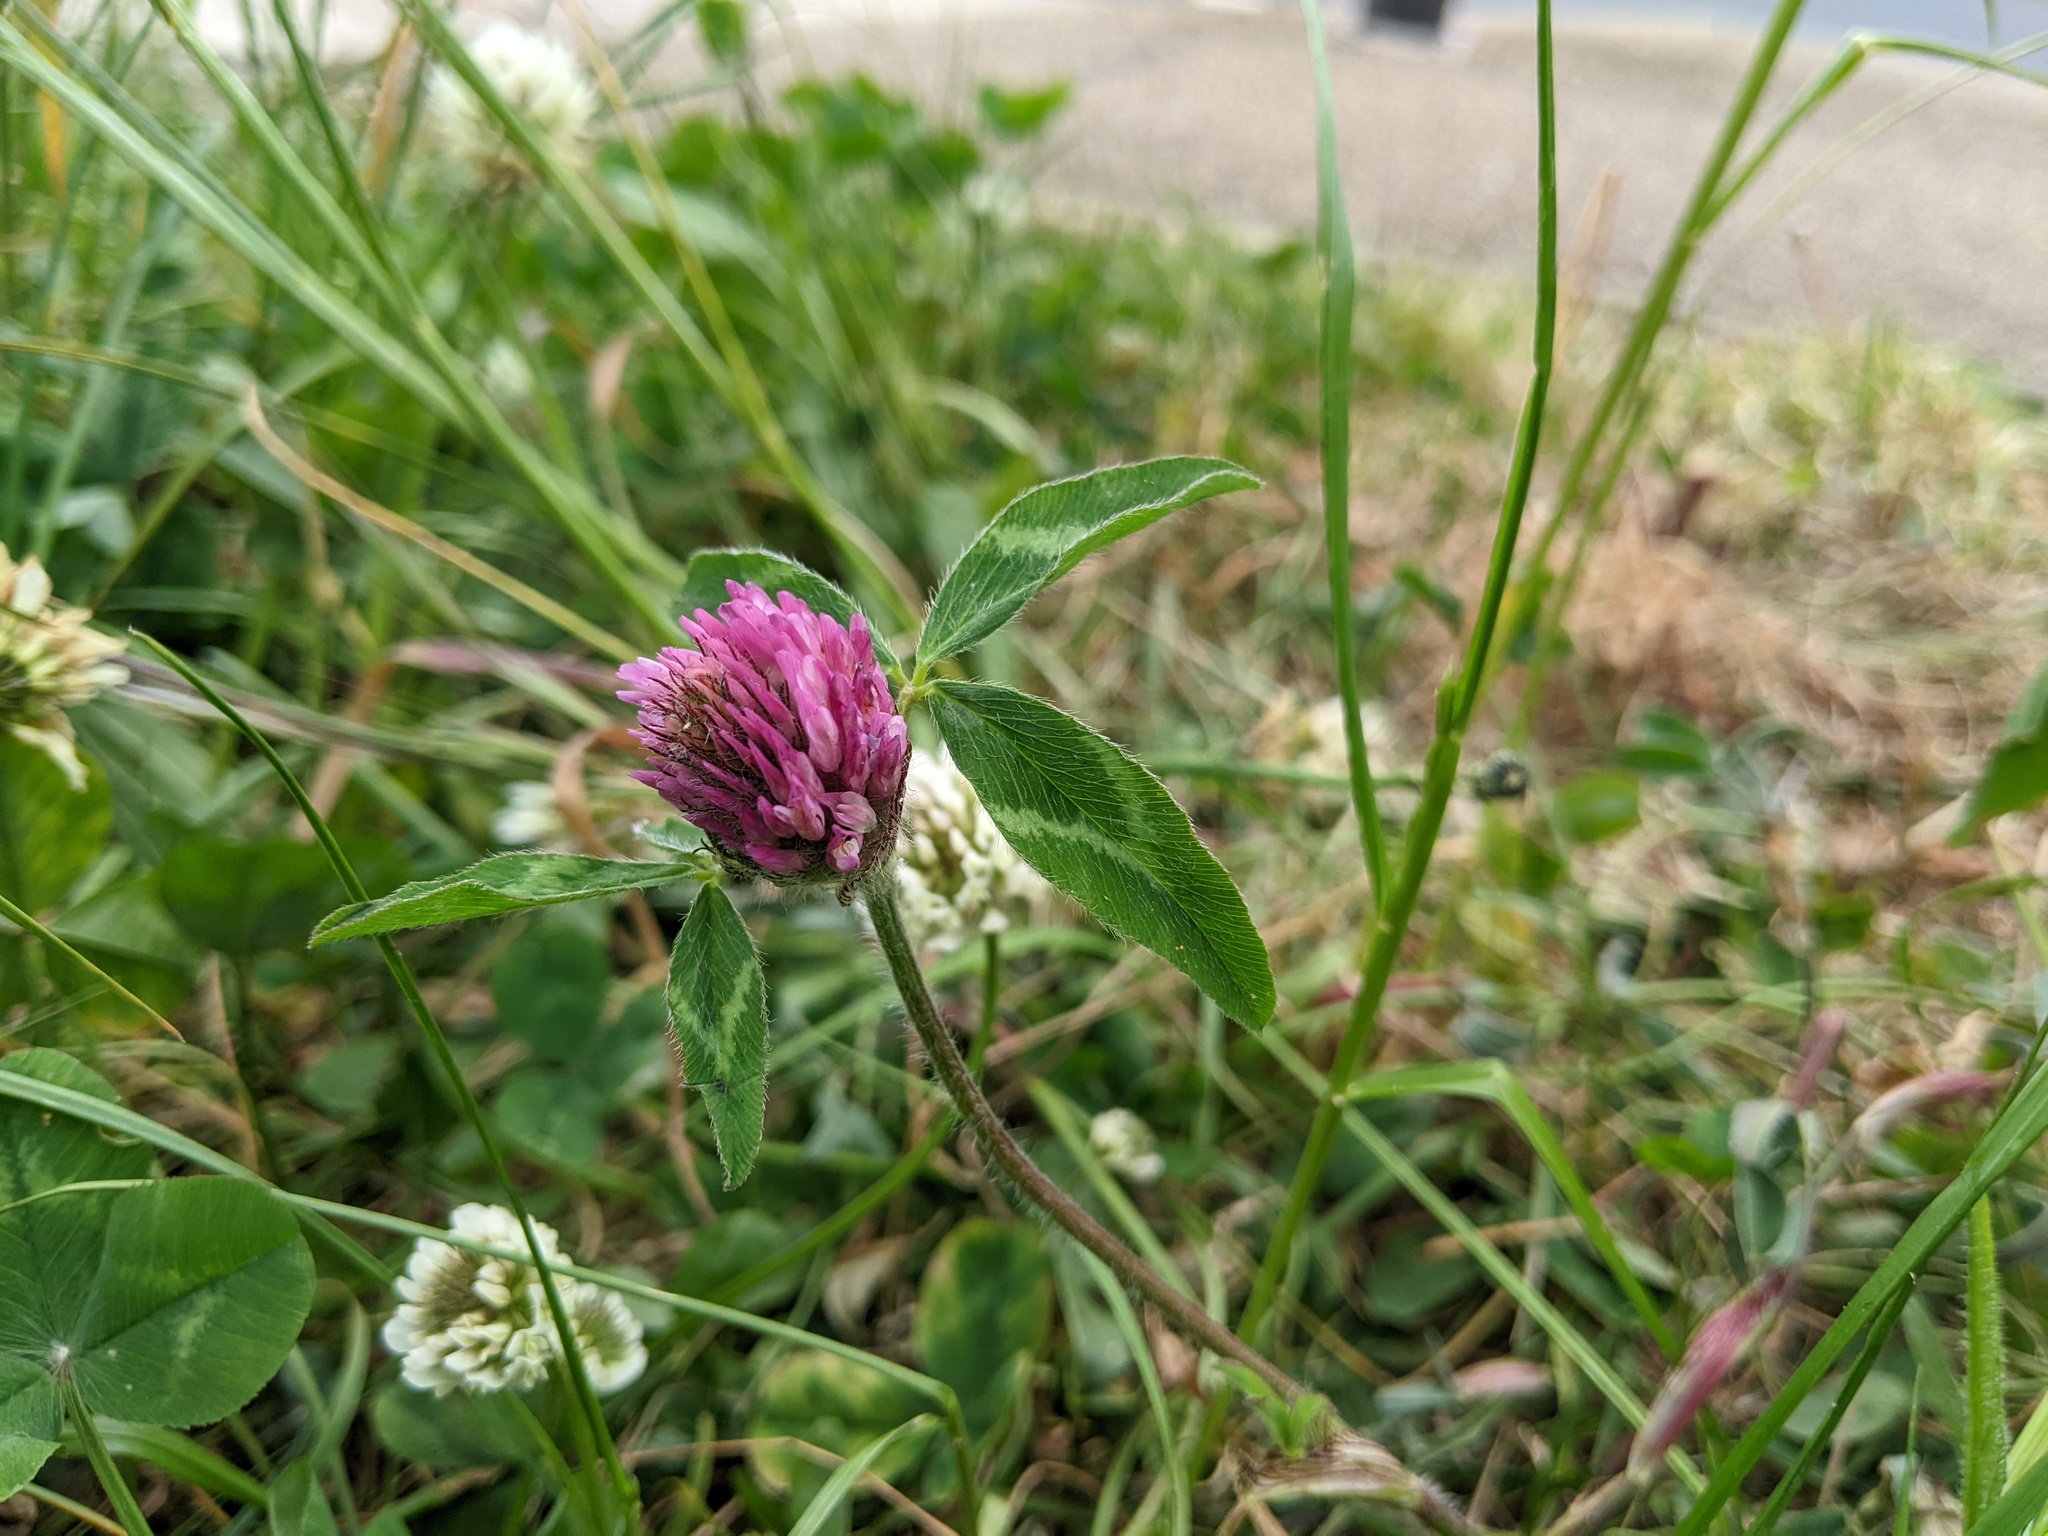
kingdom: Plantae
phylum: Tracheophyta
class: Magnoliopsida
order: Fabales
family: Fabaceae
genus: Trifolium
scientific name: Trifolium pratense
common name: Red clover
